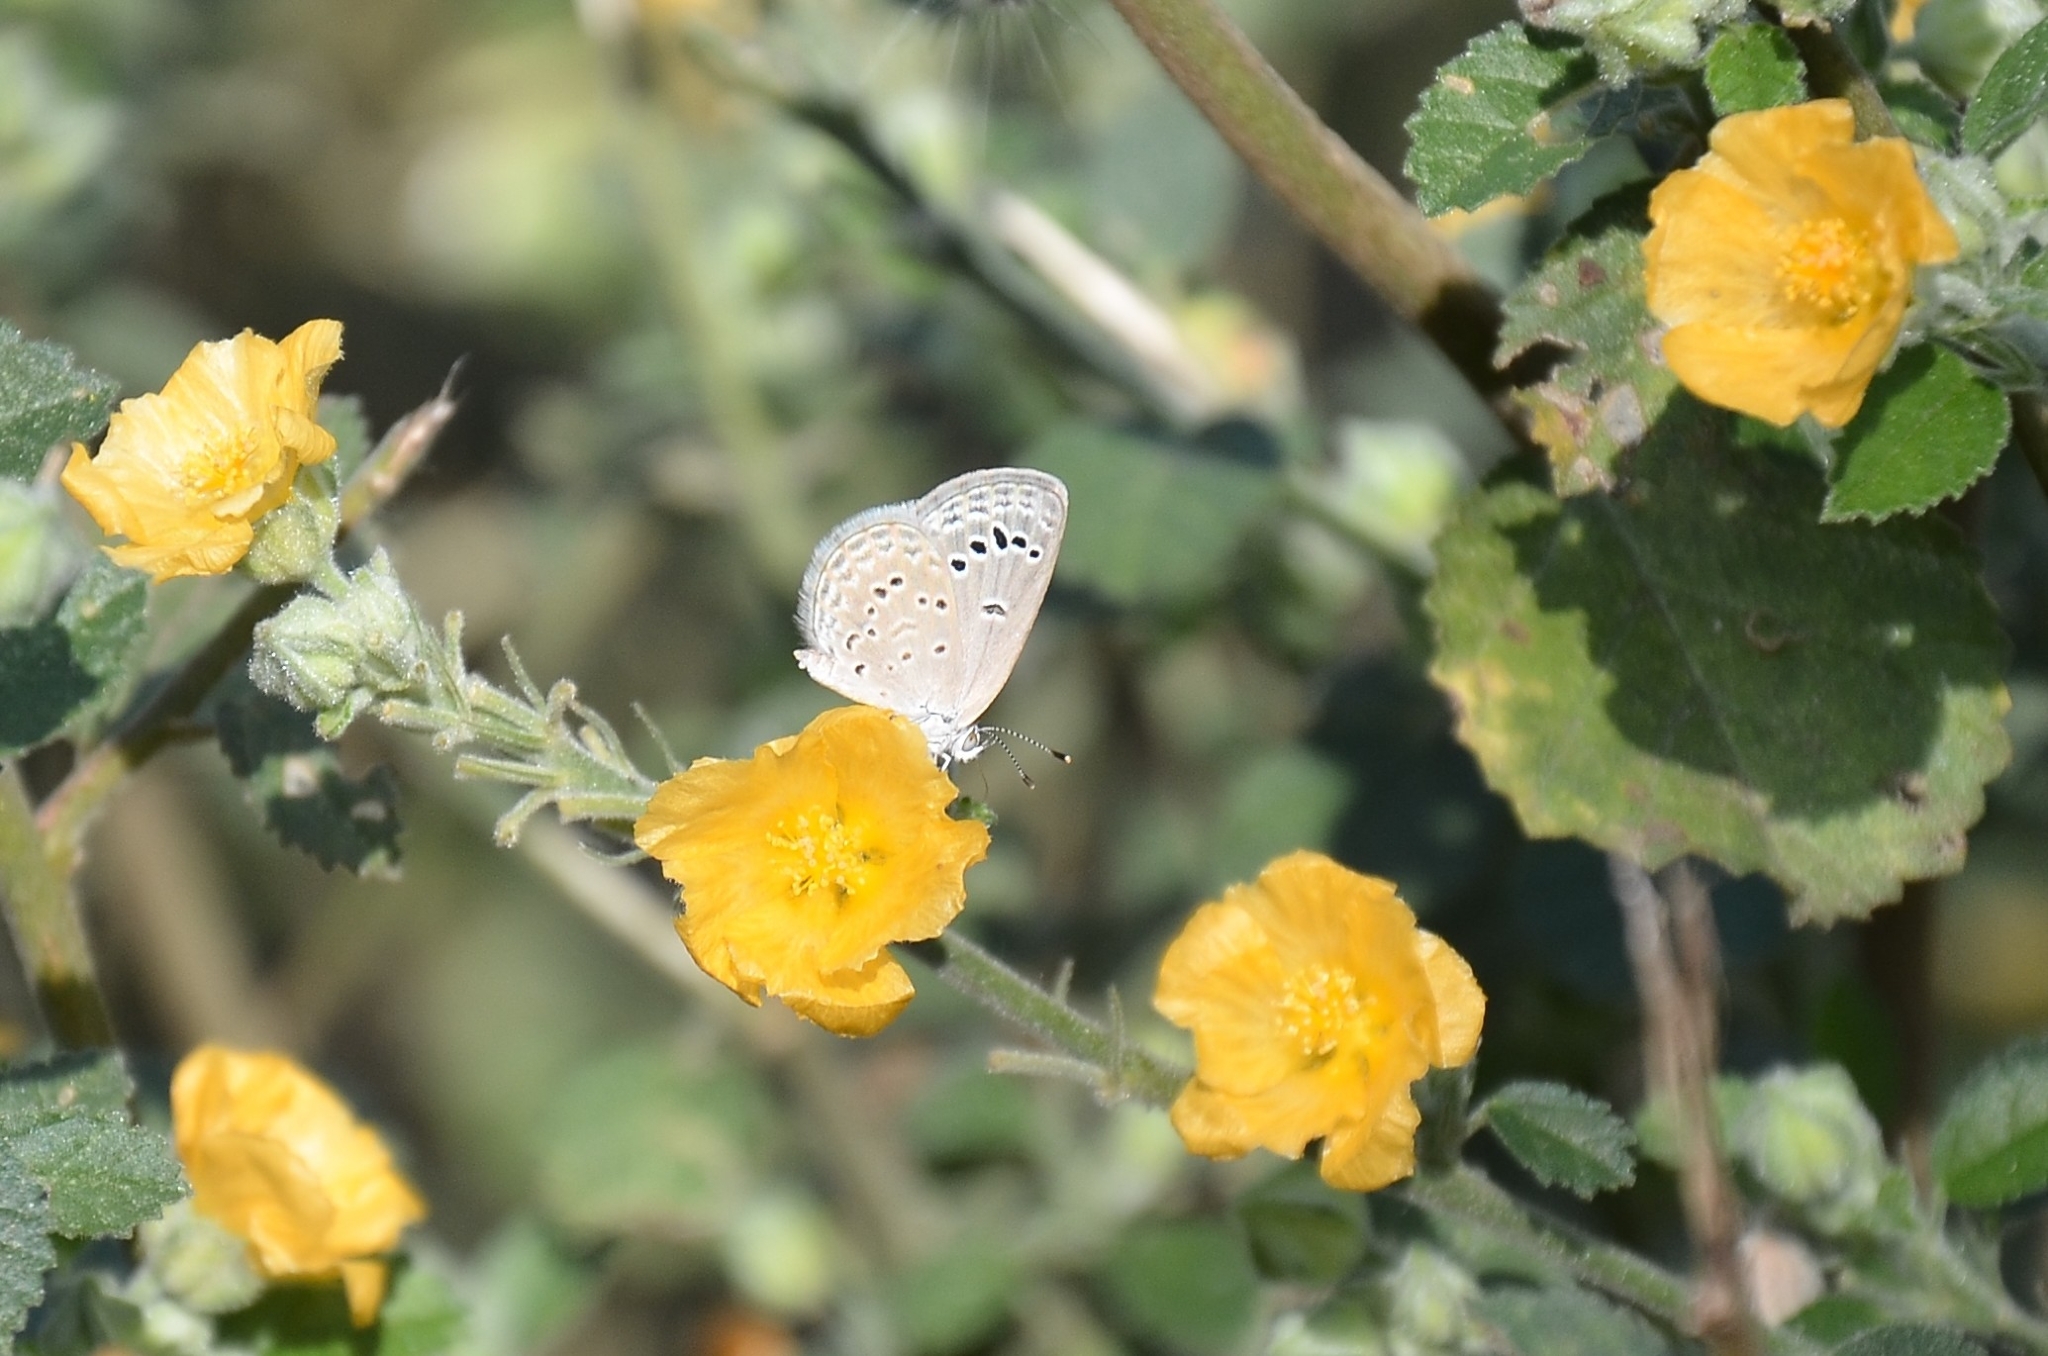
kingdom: Animalia
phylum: Arthropoda
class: Insecta
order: Lepidoptera
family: Lycaenidae
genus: Zizina
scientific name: Zizina otis
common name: Lesser grass blue
